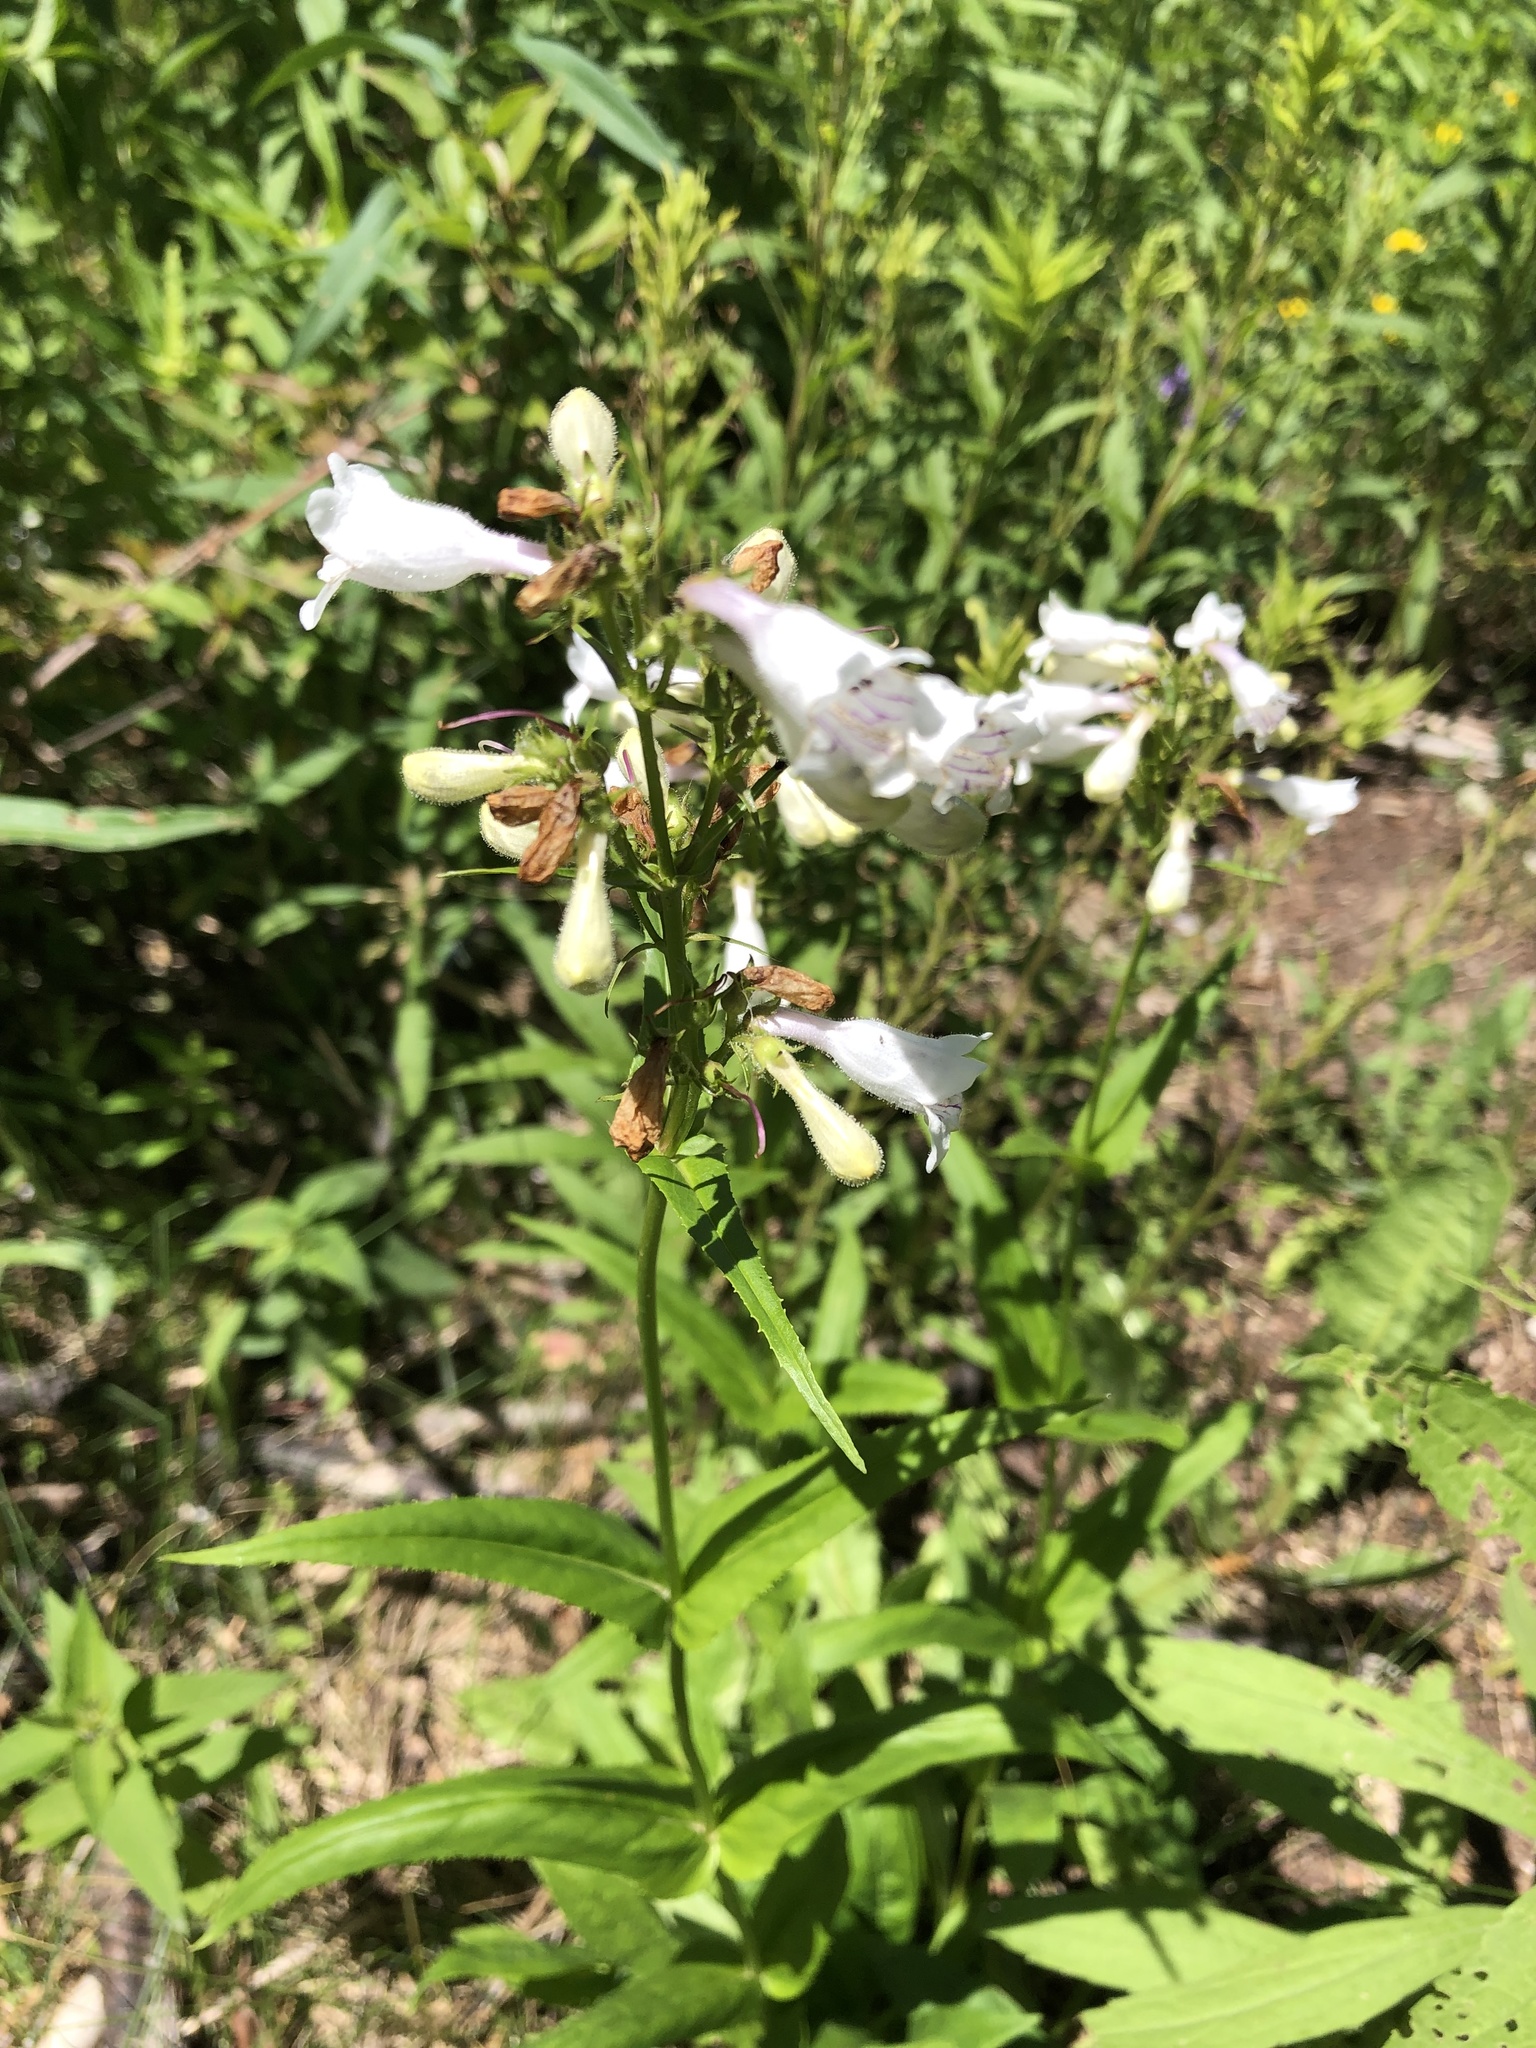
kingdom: Plantae
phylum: Tracheophyta
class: Magnoliopsida
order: Lamiales
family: Plantaginaceae
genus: Penstemon
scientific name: Penstemon digitalis
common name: Foxglove beardtongue
